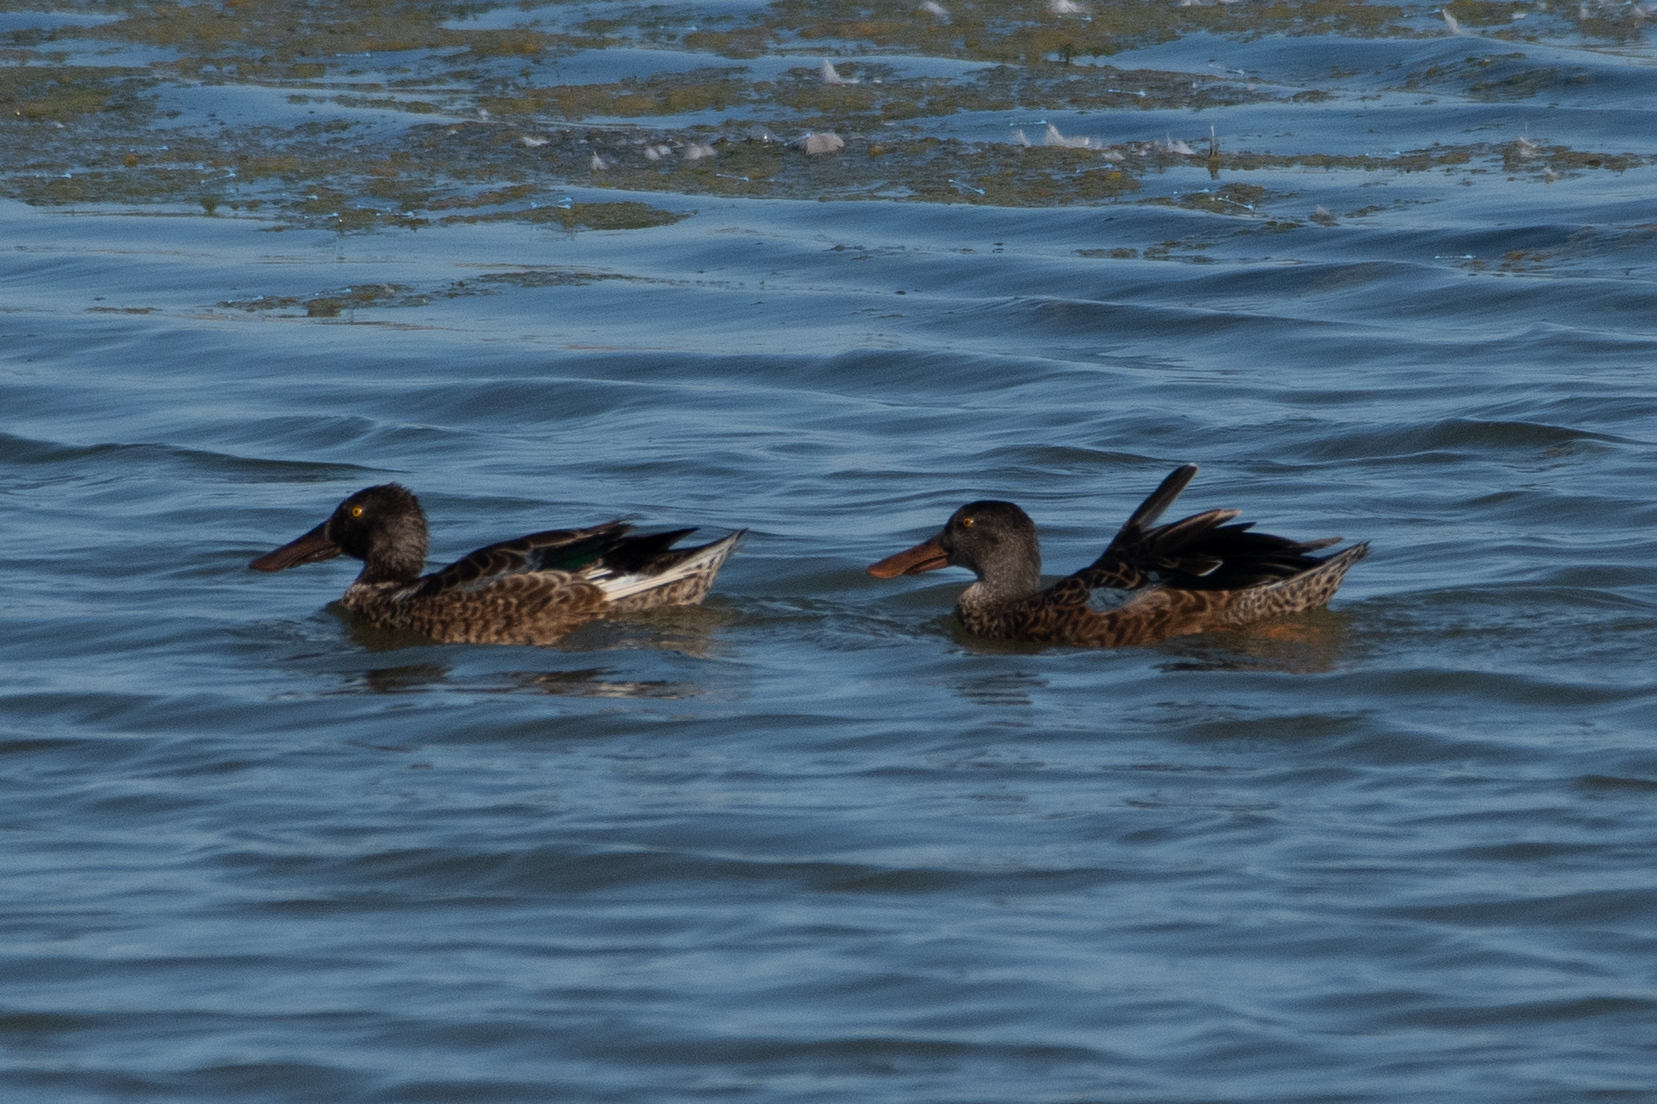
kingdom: Animalia
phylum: Chordata
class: Aves
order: Anseriformes
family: Anatidae
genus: Spatula
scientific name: Spatula clypeata
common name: Northern shoveler
